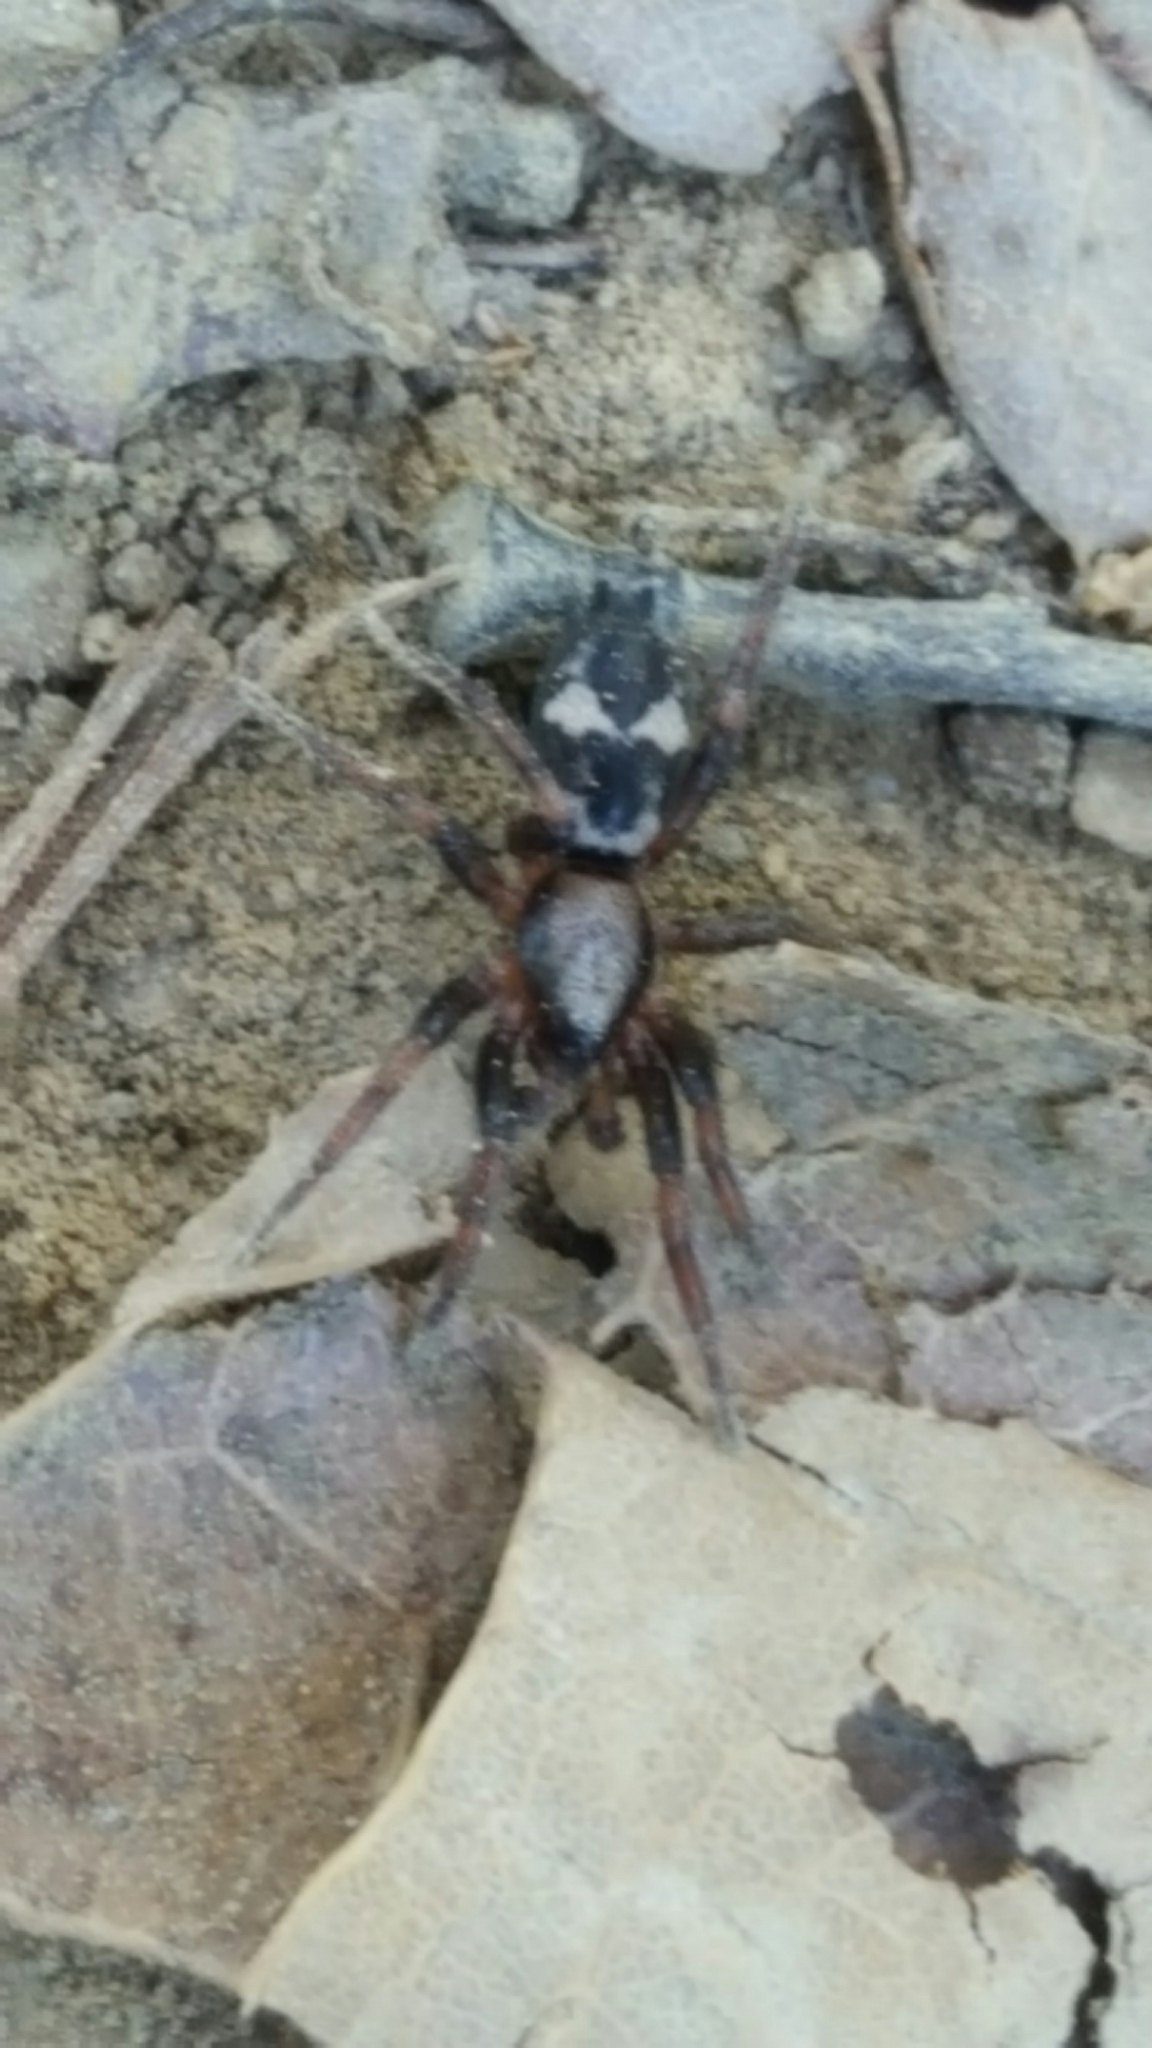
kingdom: Animalia
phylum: Arthropoda
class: Arachnida
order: Araneae
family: Gnaphosidae
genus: Sergiolus
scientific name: Sergiolus montanus
